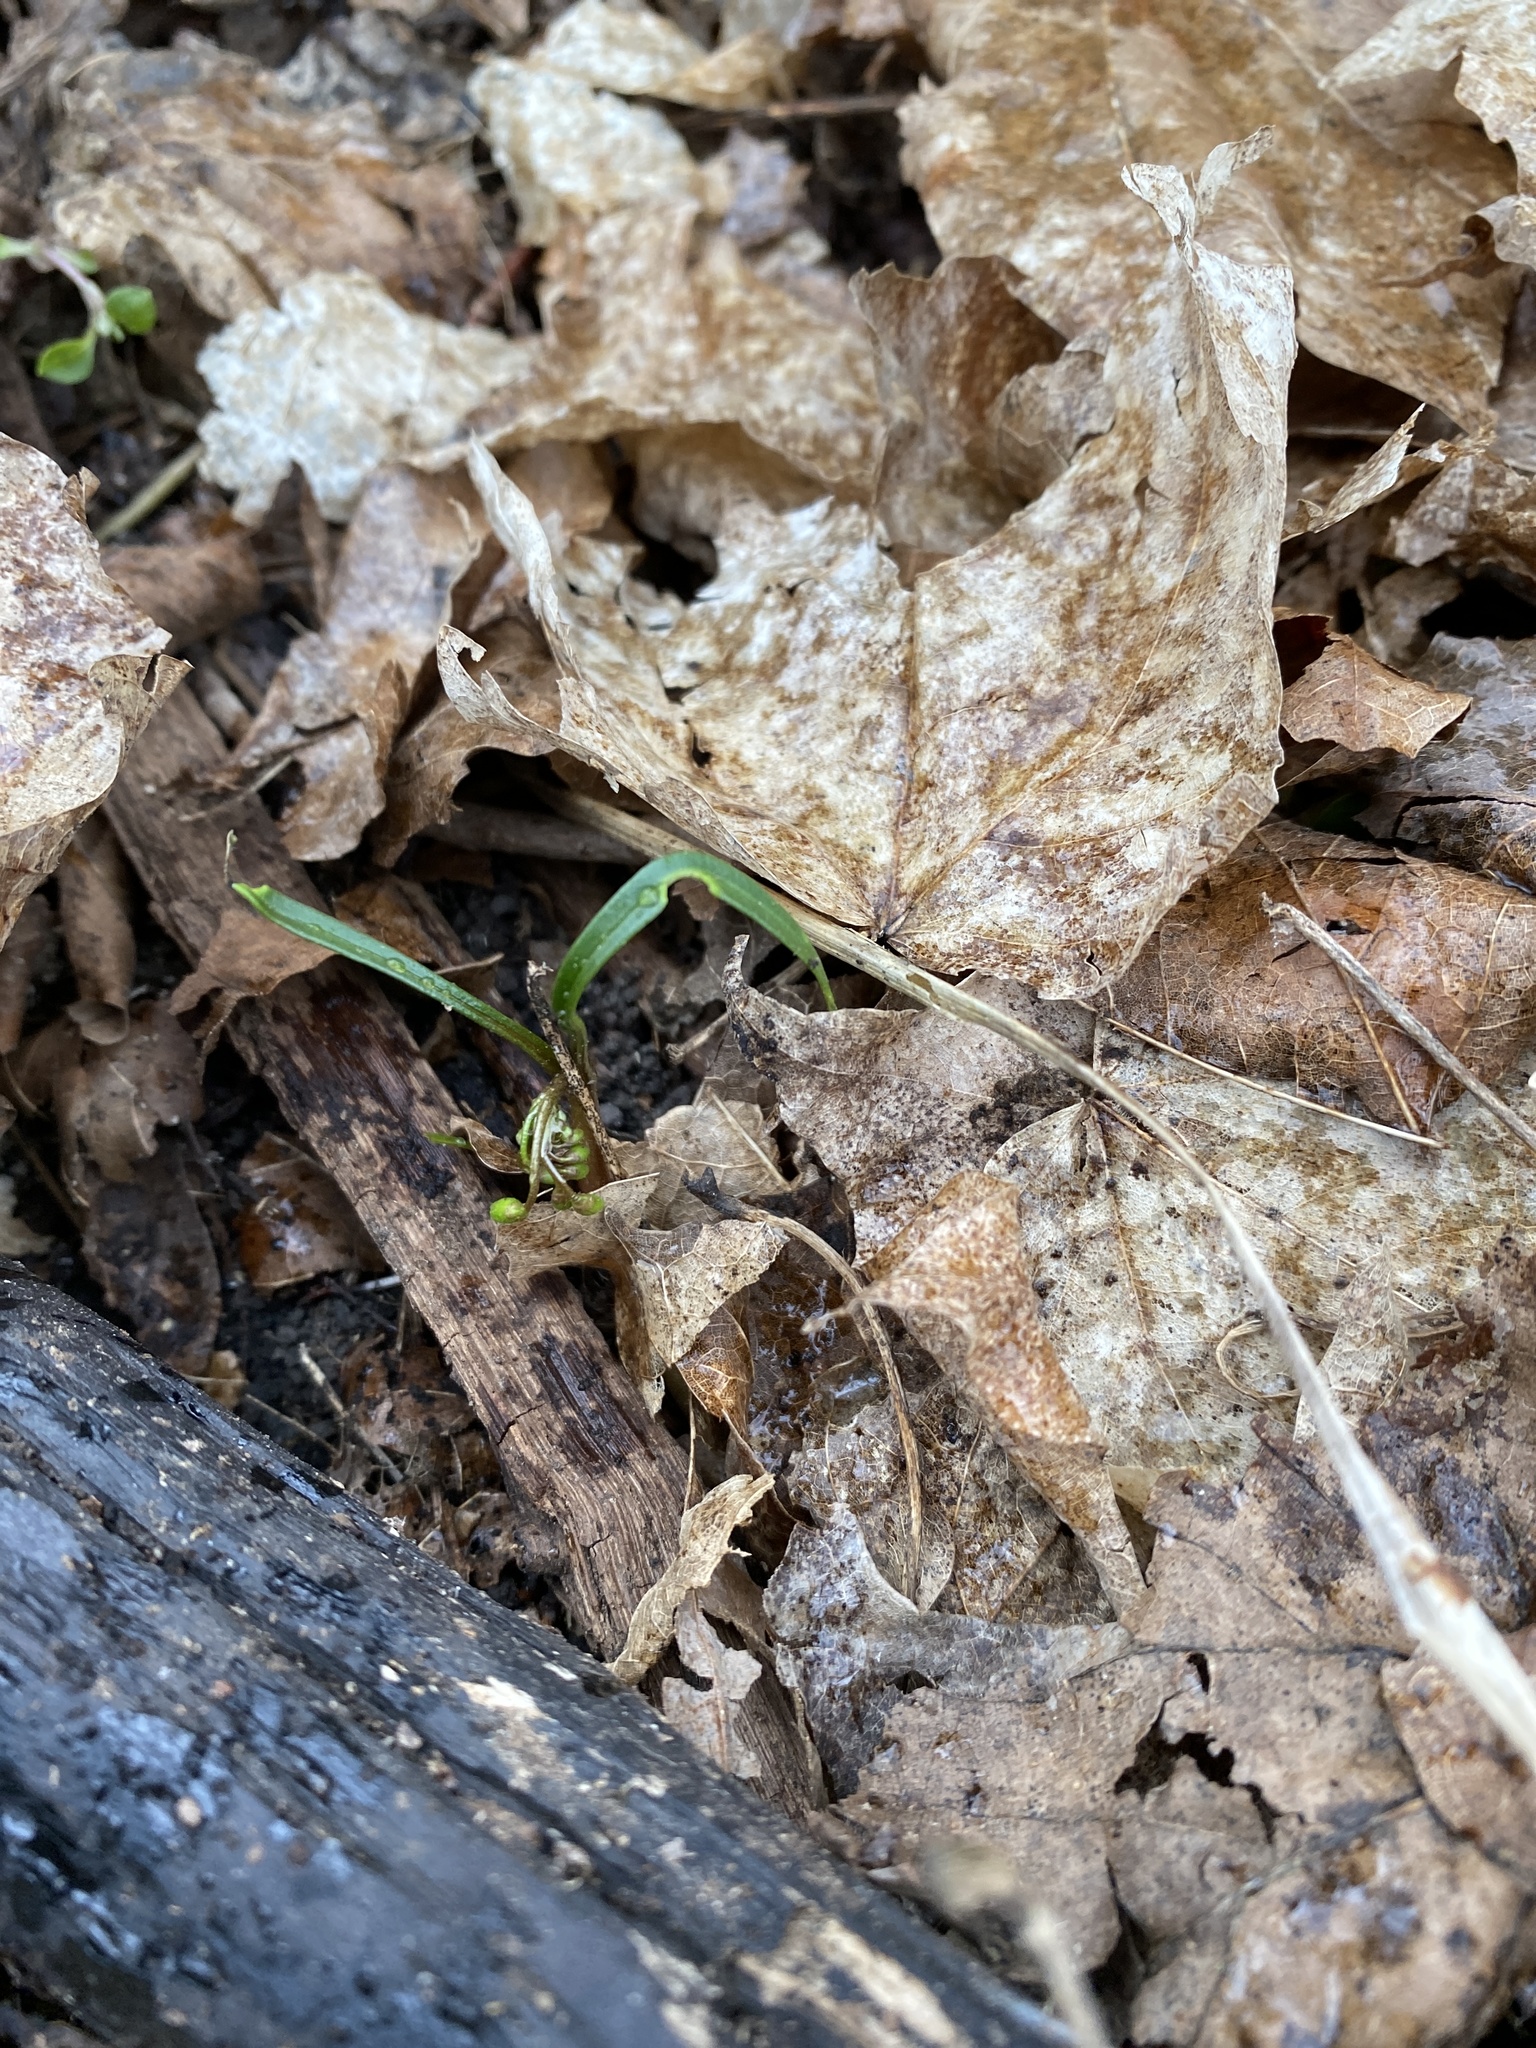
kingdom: Plantae
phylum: Tracheophyta
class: Magnoliopsida
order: Caryophyllales
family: Montiaceae
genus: Claytonia
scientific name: Claytonia virginica
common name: Virginia springbeauty
